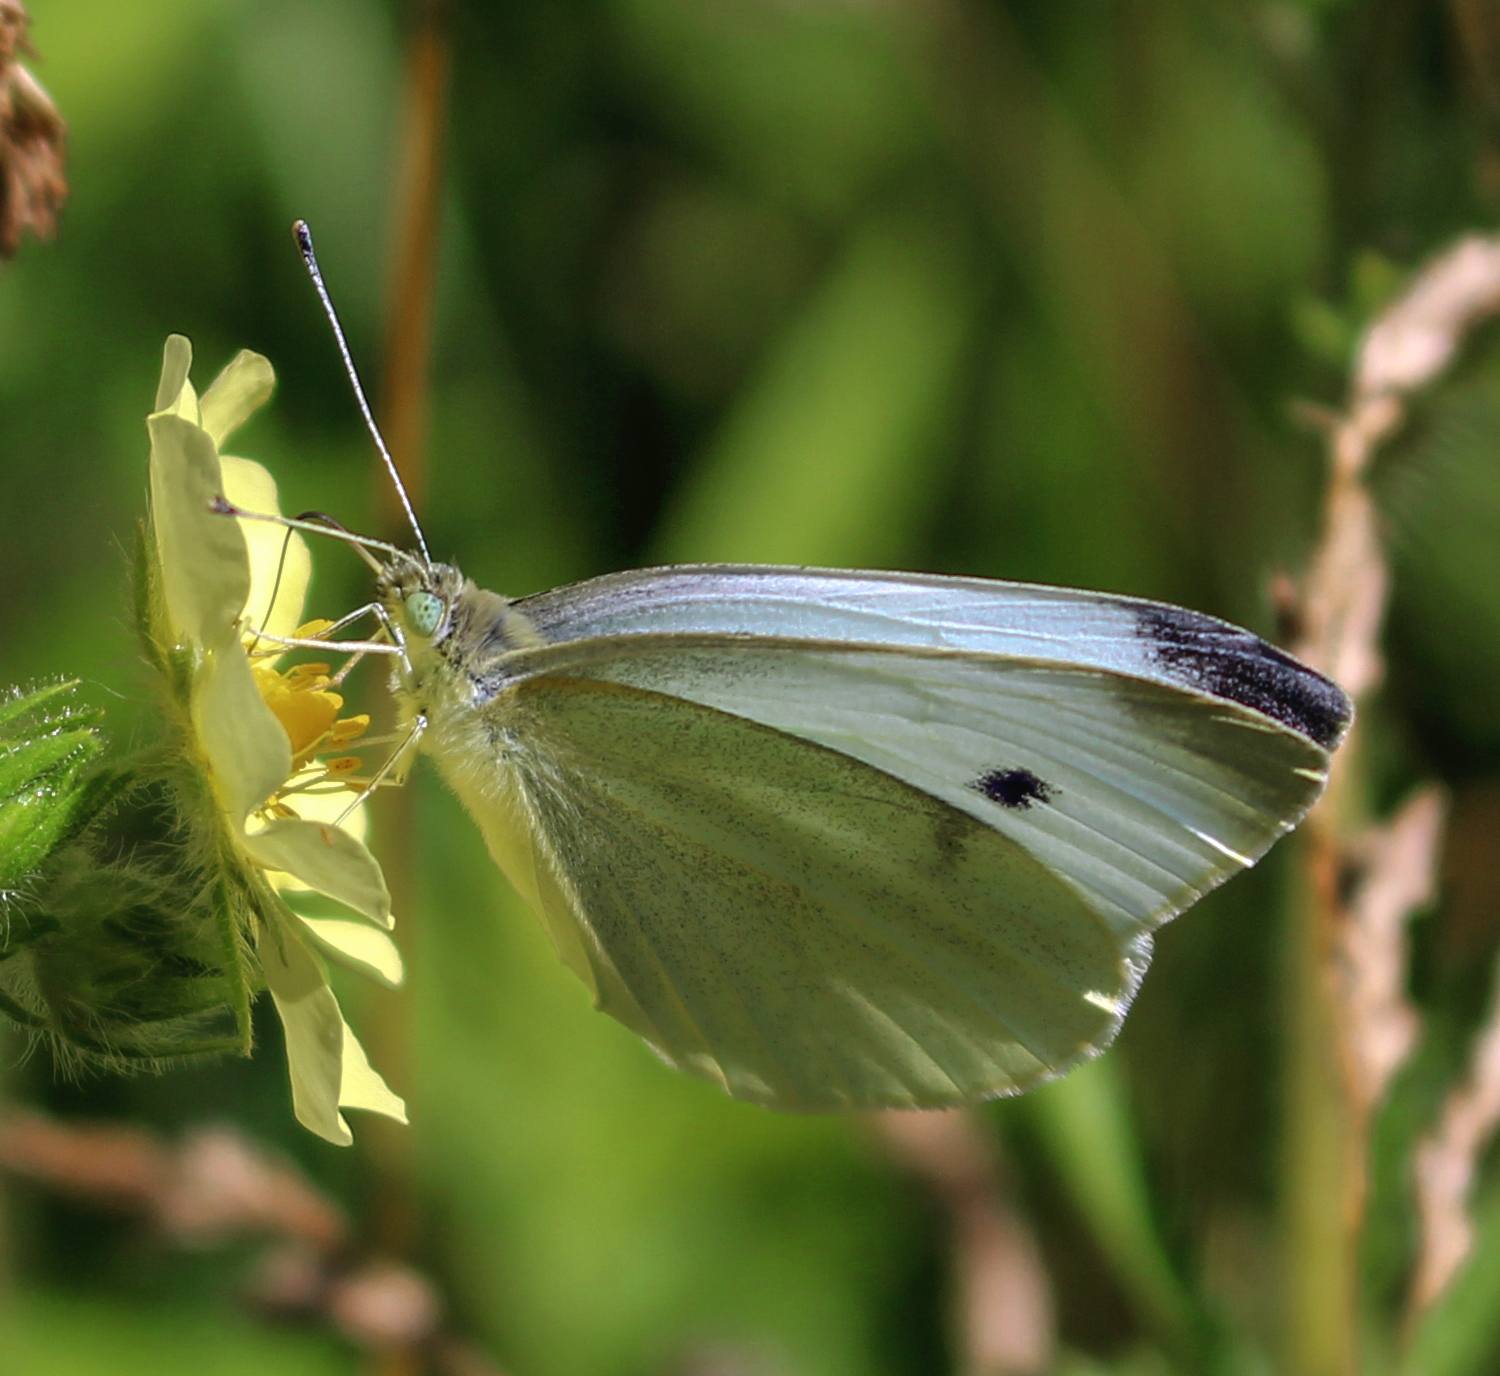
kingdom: Animalia
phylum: Arthropoda
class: Insecta
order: Lepidoptera
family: Pieridae
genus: Pieris
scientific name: Pieris rapae
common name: Small white
